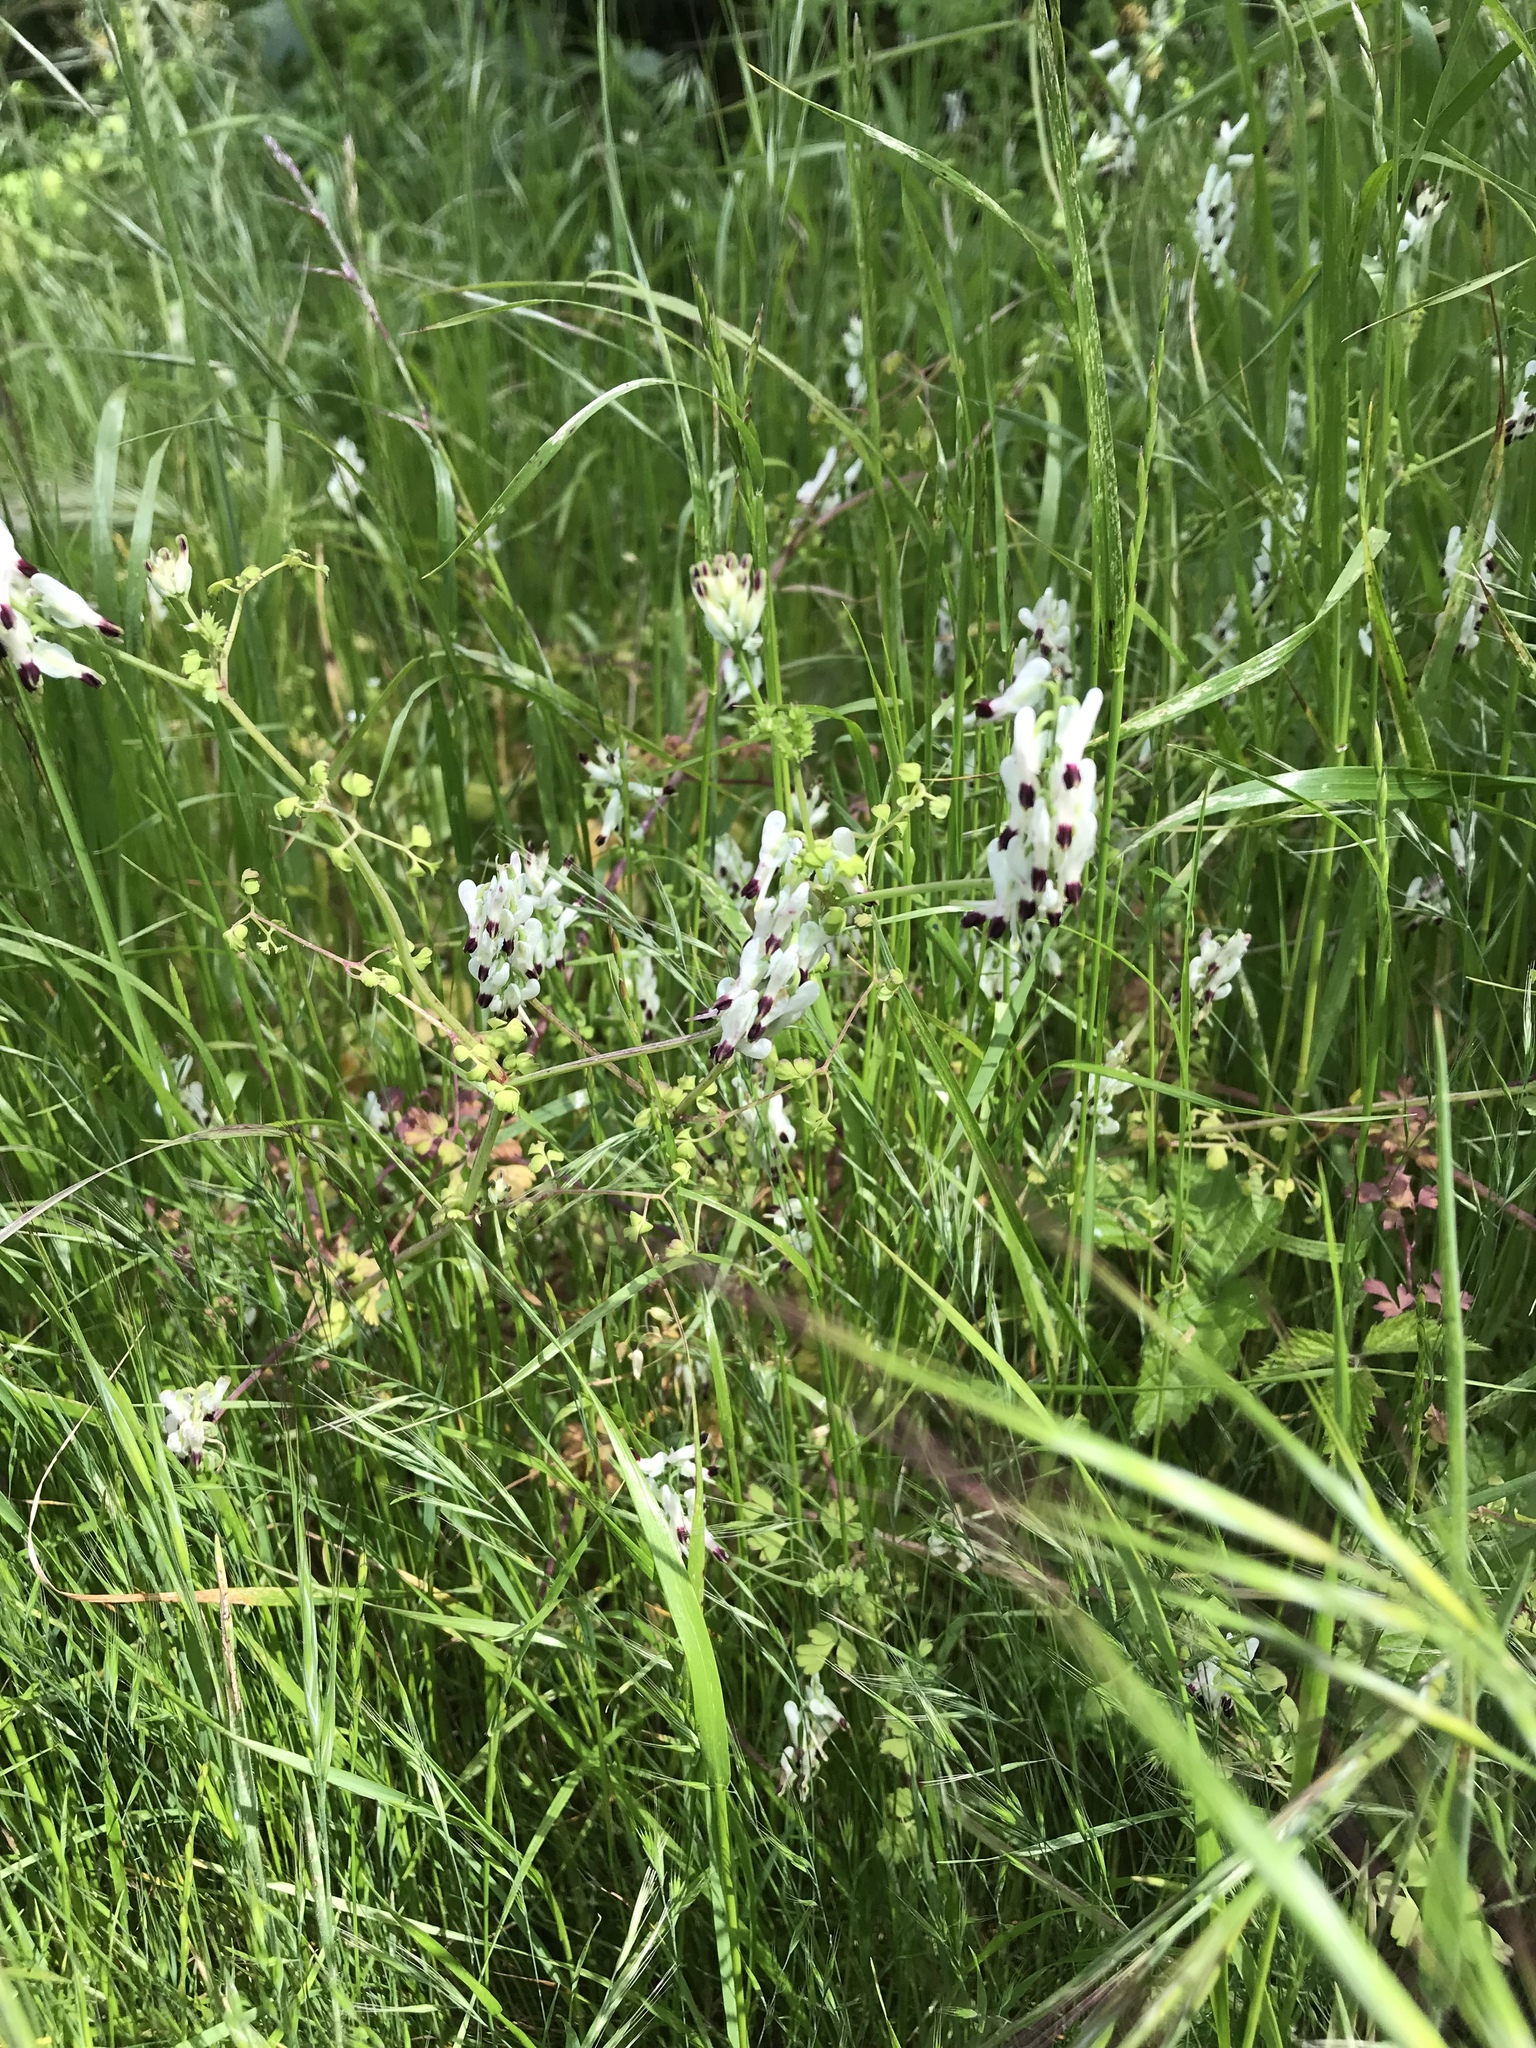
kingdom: Plantae
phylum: Tracheophyta
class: Magnoliopsida
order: Ranunculales
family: Papaveraceae
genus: Fumaria
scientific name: Fumaria capreolata
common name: White ramping-fumitory
